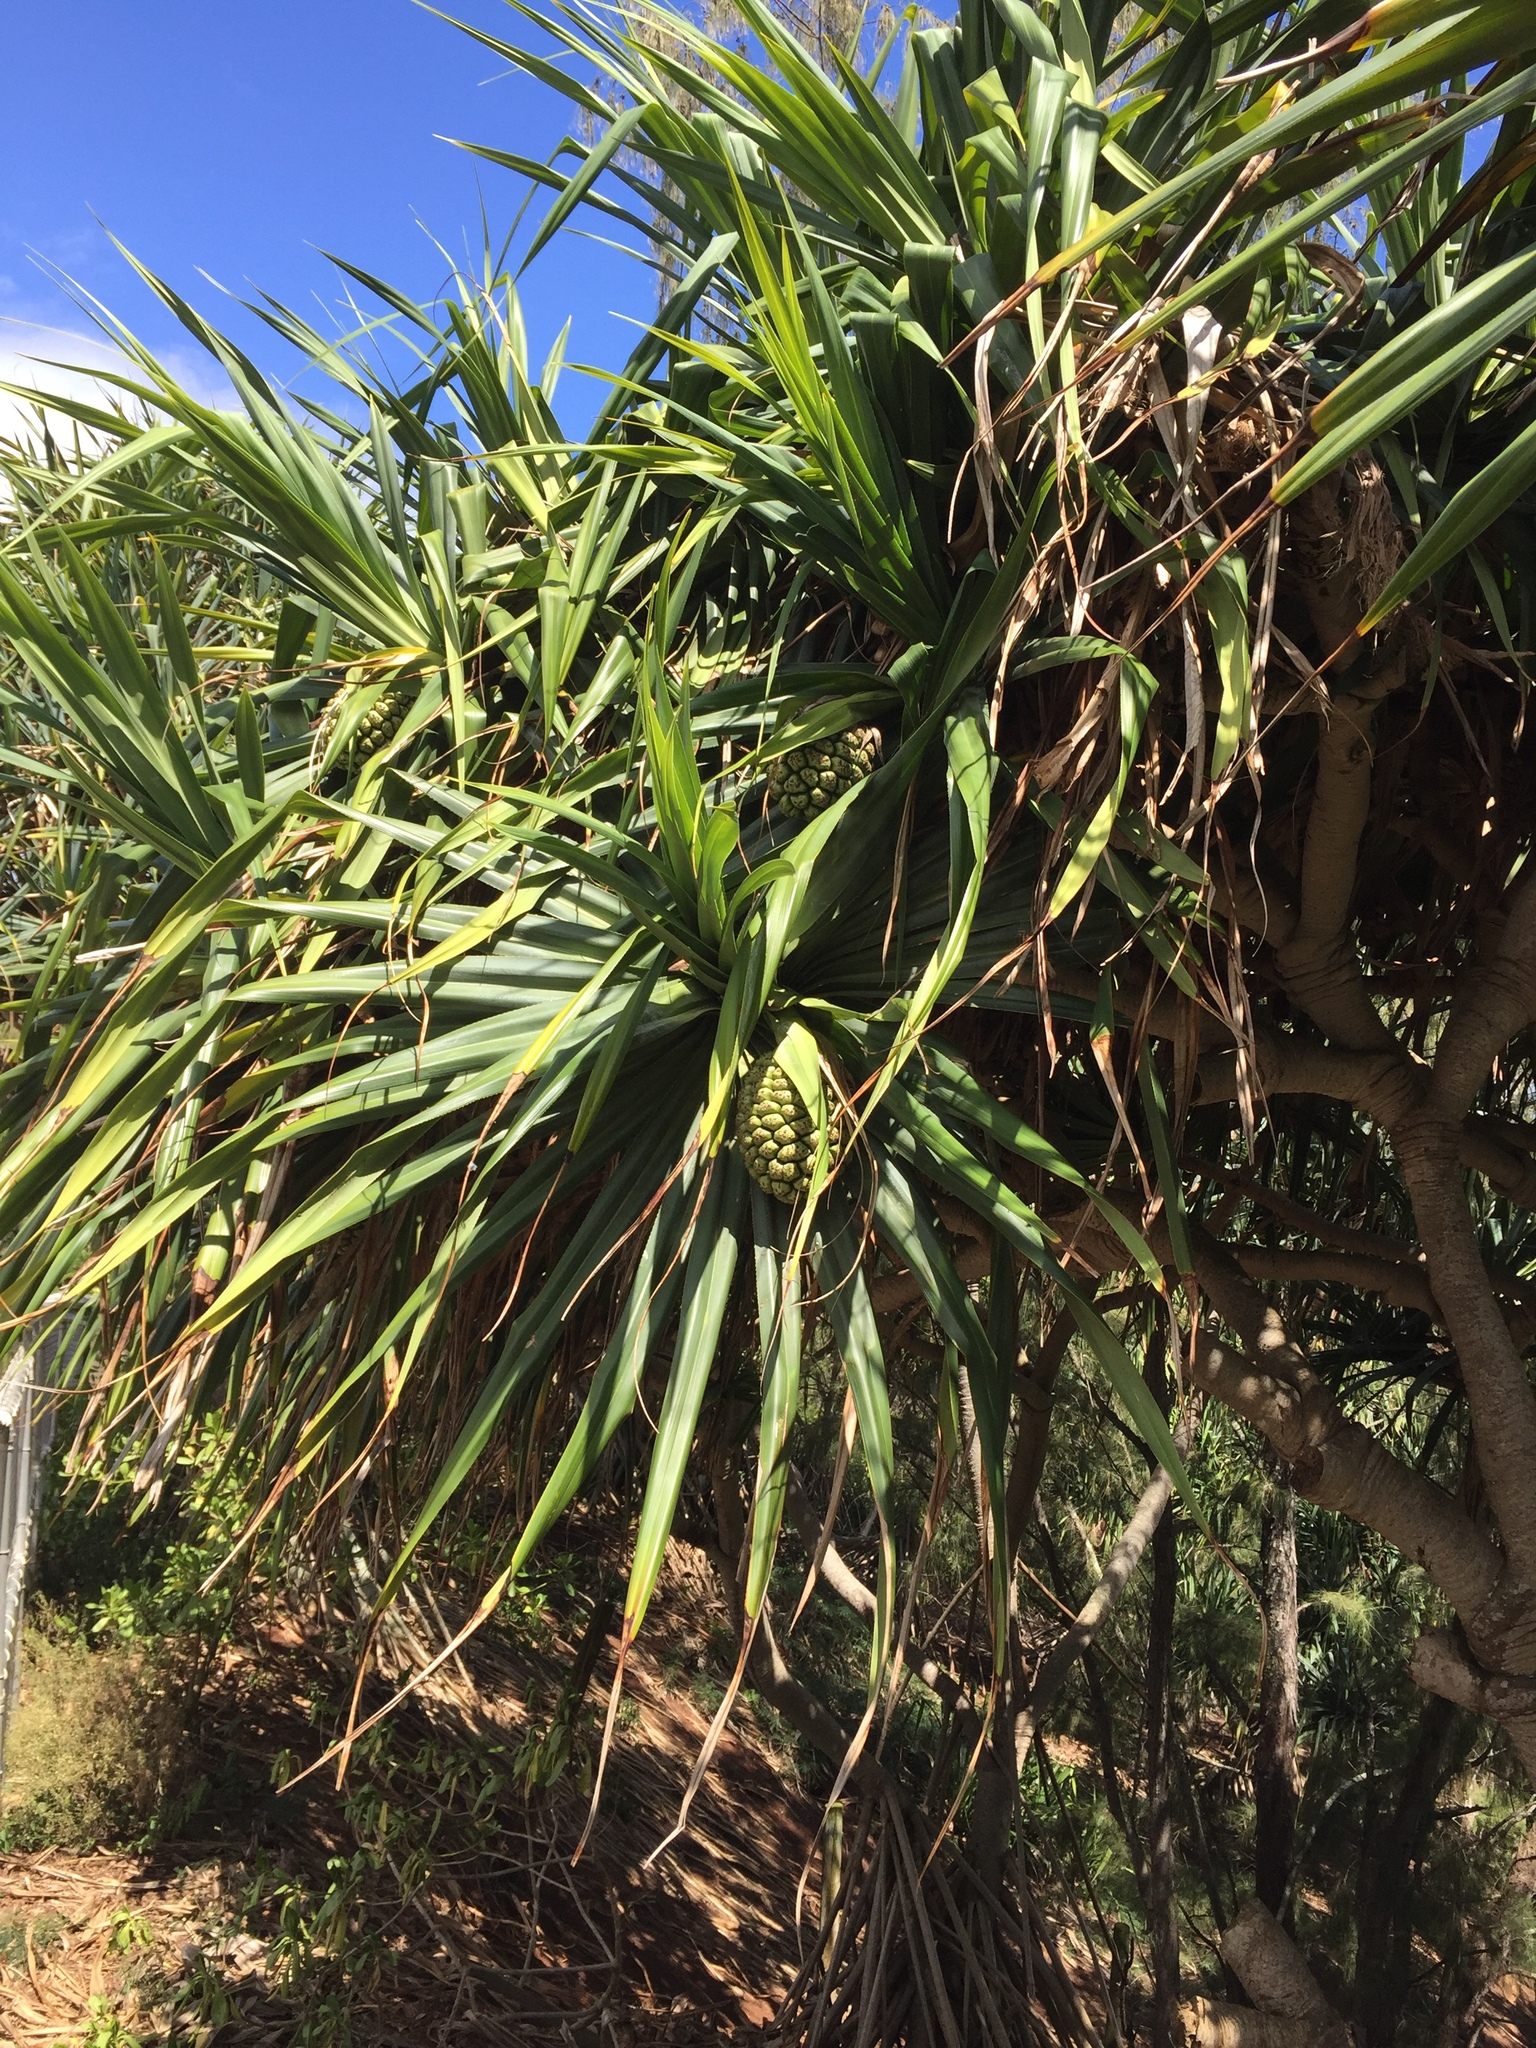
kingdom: Plantae
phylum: Tracheophyta
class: Liliopsida
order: Pandanales
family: Pandanaceae
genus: Pandanus
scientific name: Pandanus tectorius
